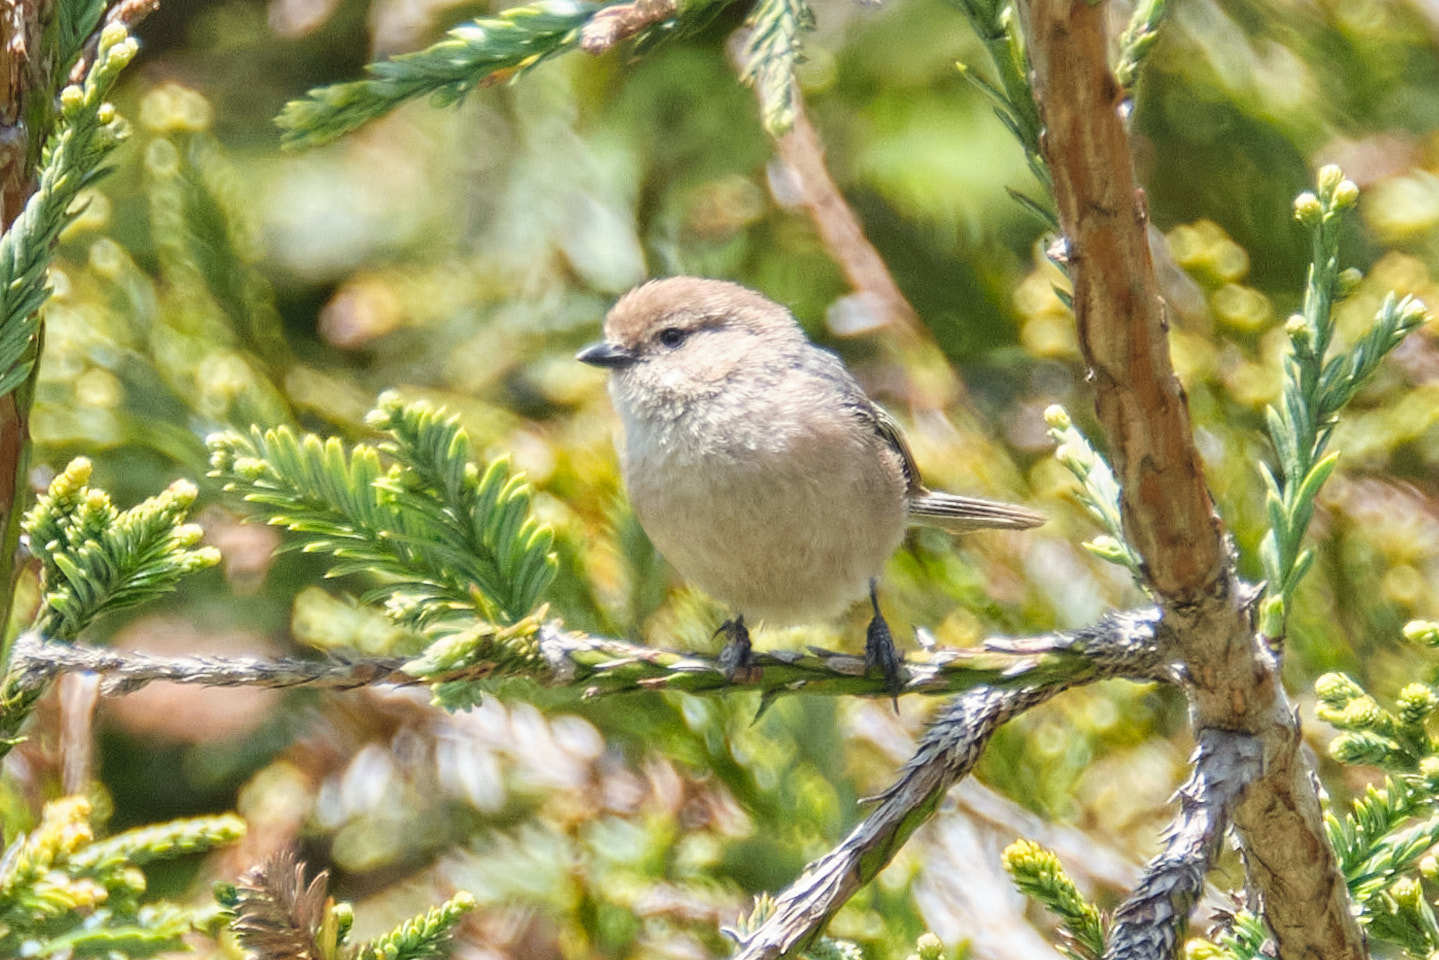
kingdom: Animalia
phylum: Chordata
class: Aves
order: Passeriformes
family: Aegithalidae
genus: Psaltriparus
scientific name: Psaltriparus minimus
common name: American bushtit
